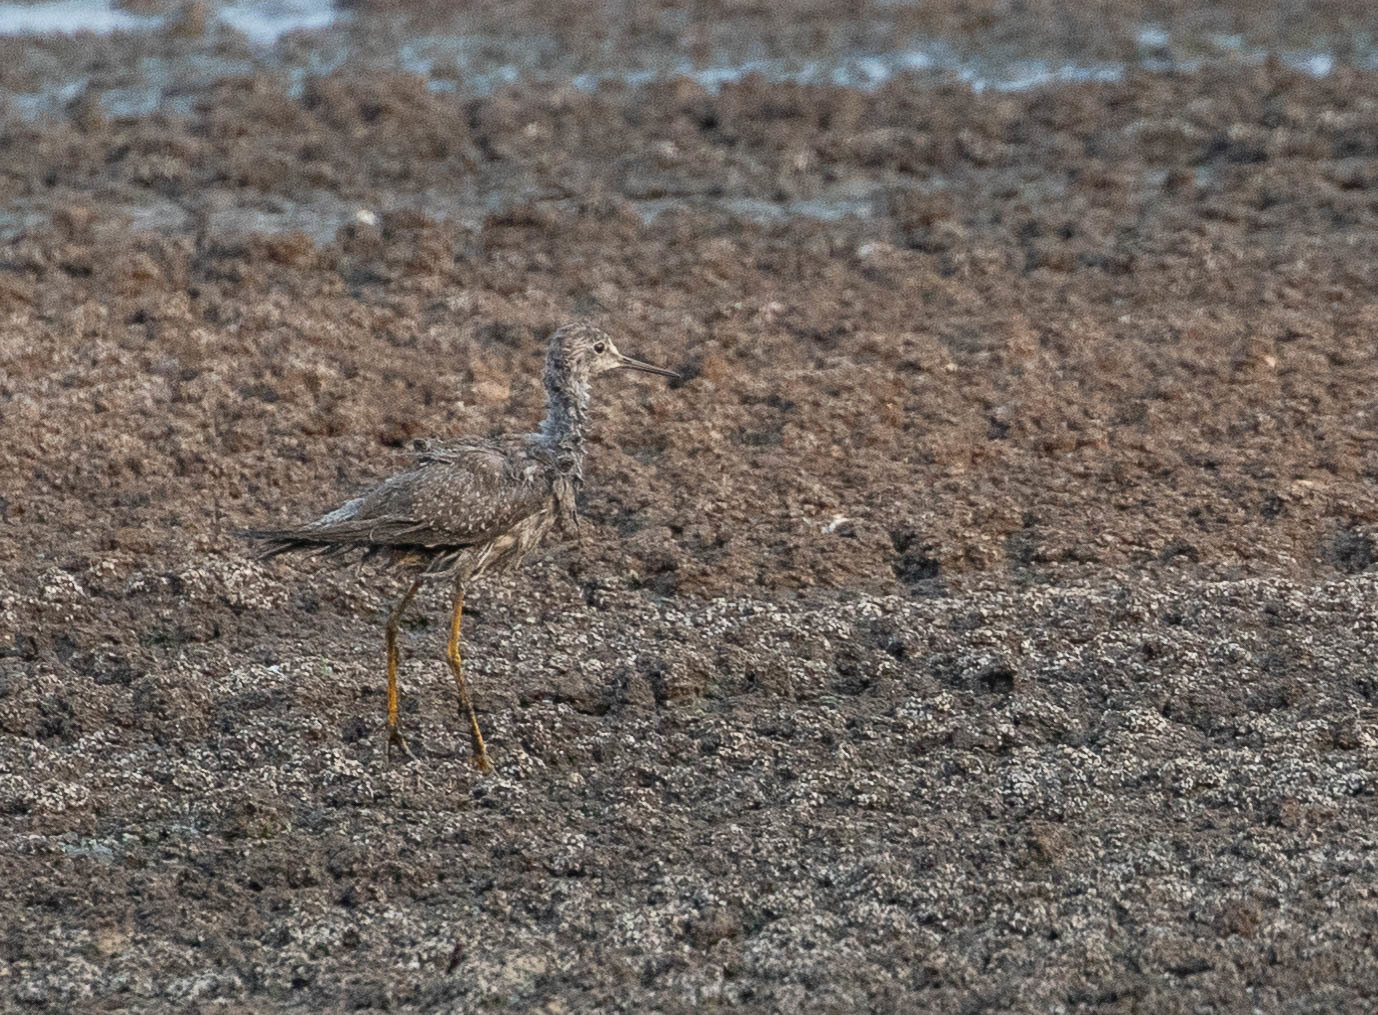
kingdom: Animalia
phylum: Chordata
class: Aves
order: Charadriiformes
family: Scolopacidae
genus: Tringa
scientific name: Tringa flavipes
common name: Lesser yellowlegs
